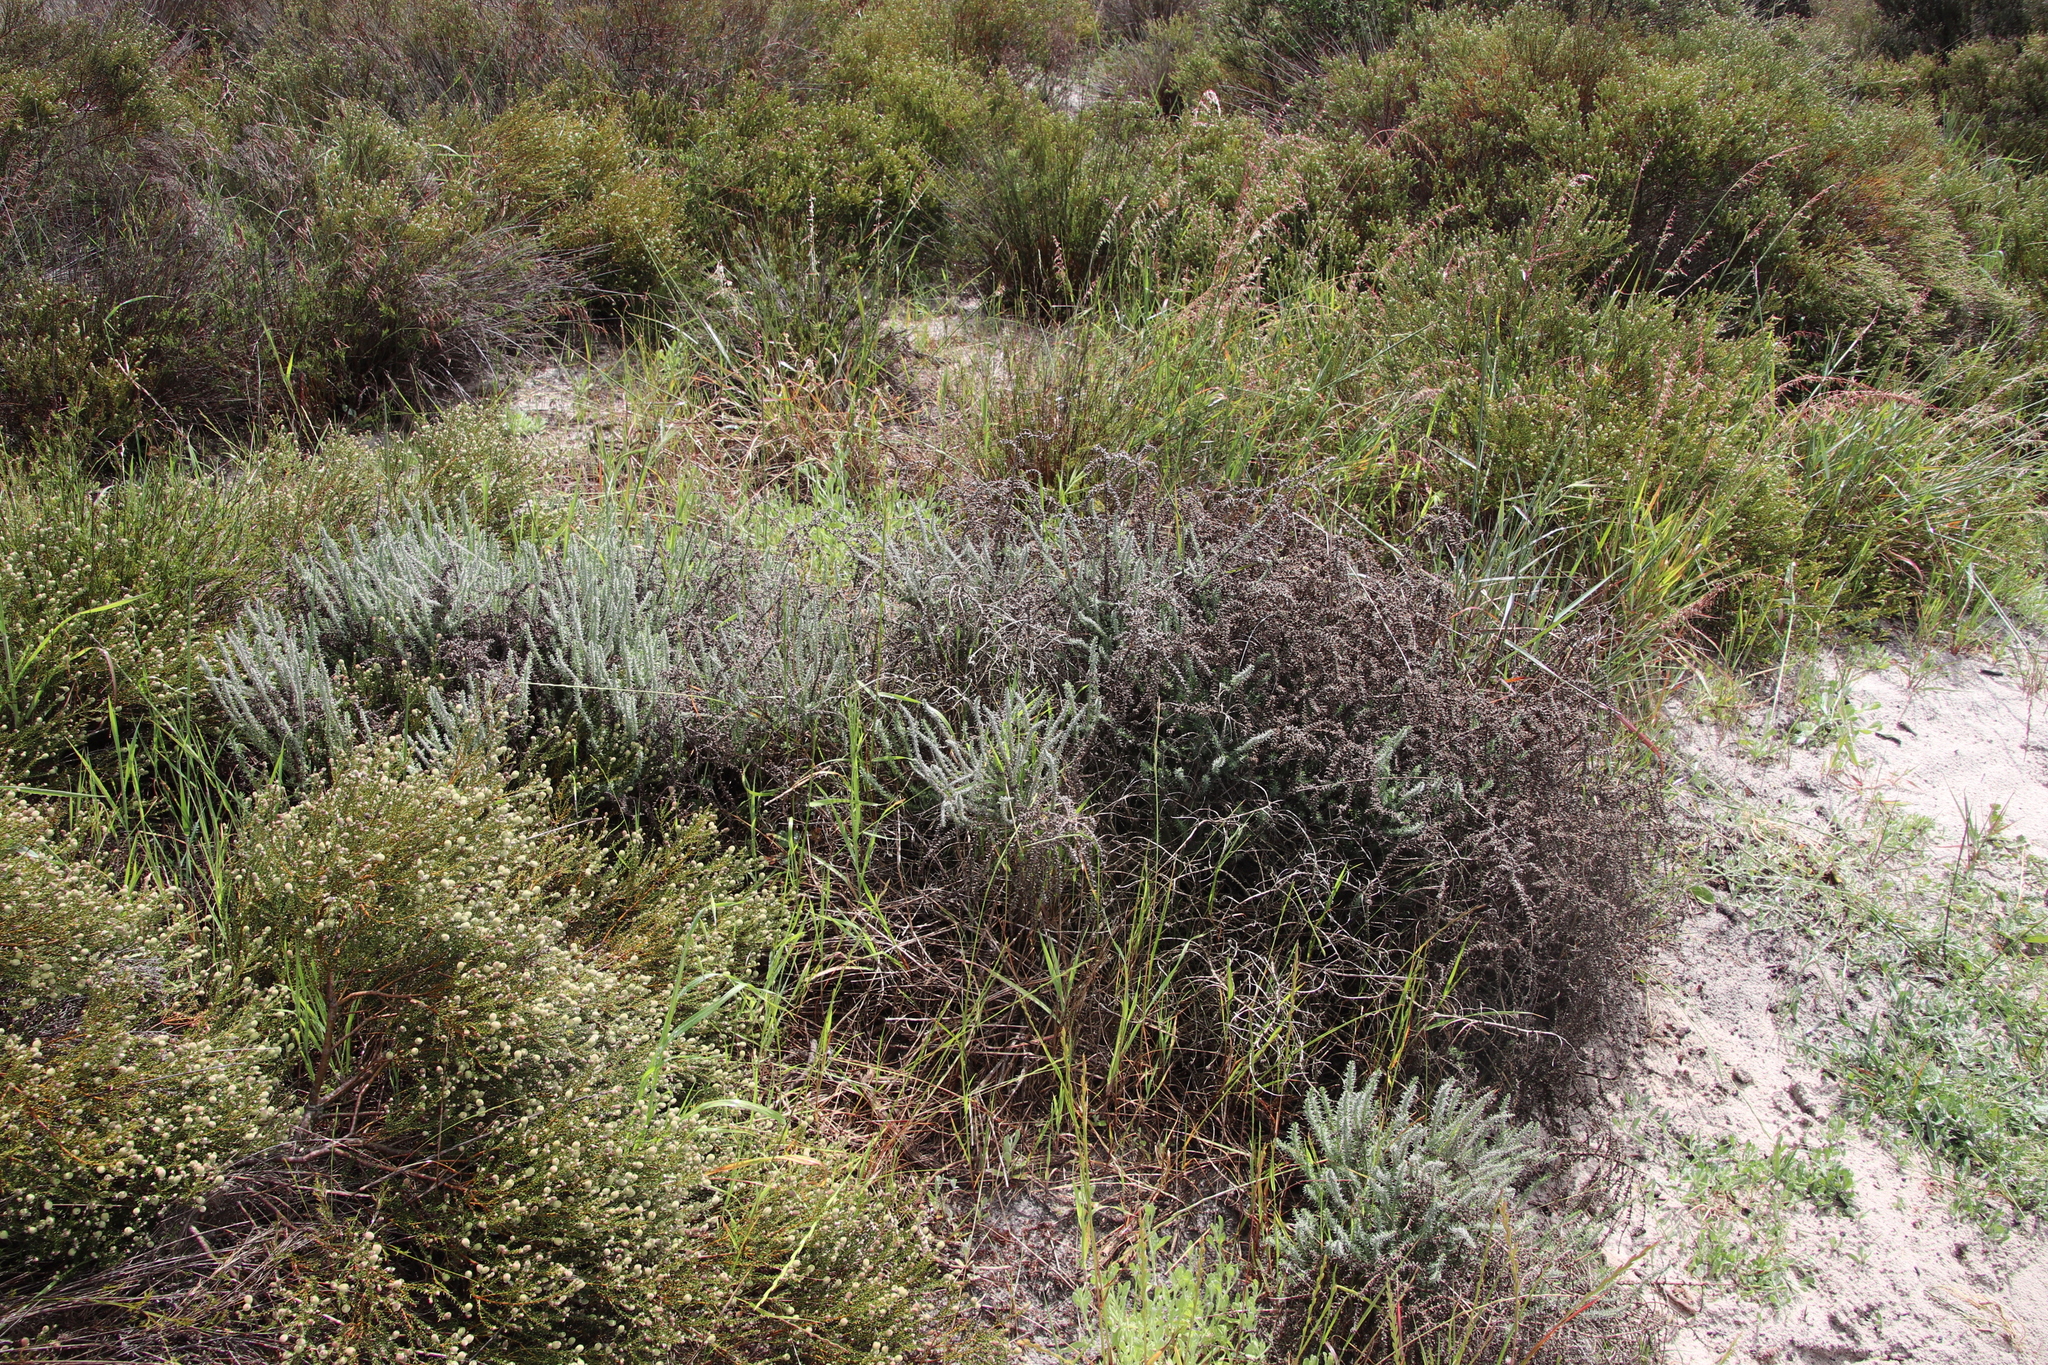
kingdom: Plantae
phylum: Tracheophyta
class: Magnoliopsida
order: Asterales
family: Asteraceae
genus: Ifloga
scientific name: Ifloga ambigua
